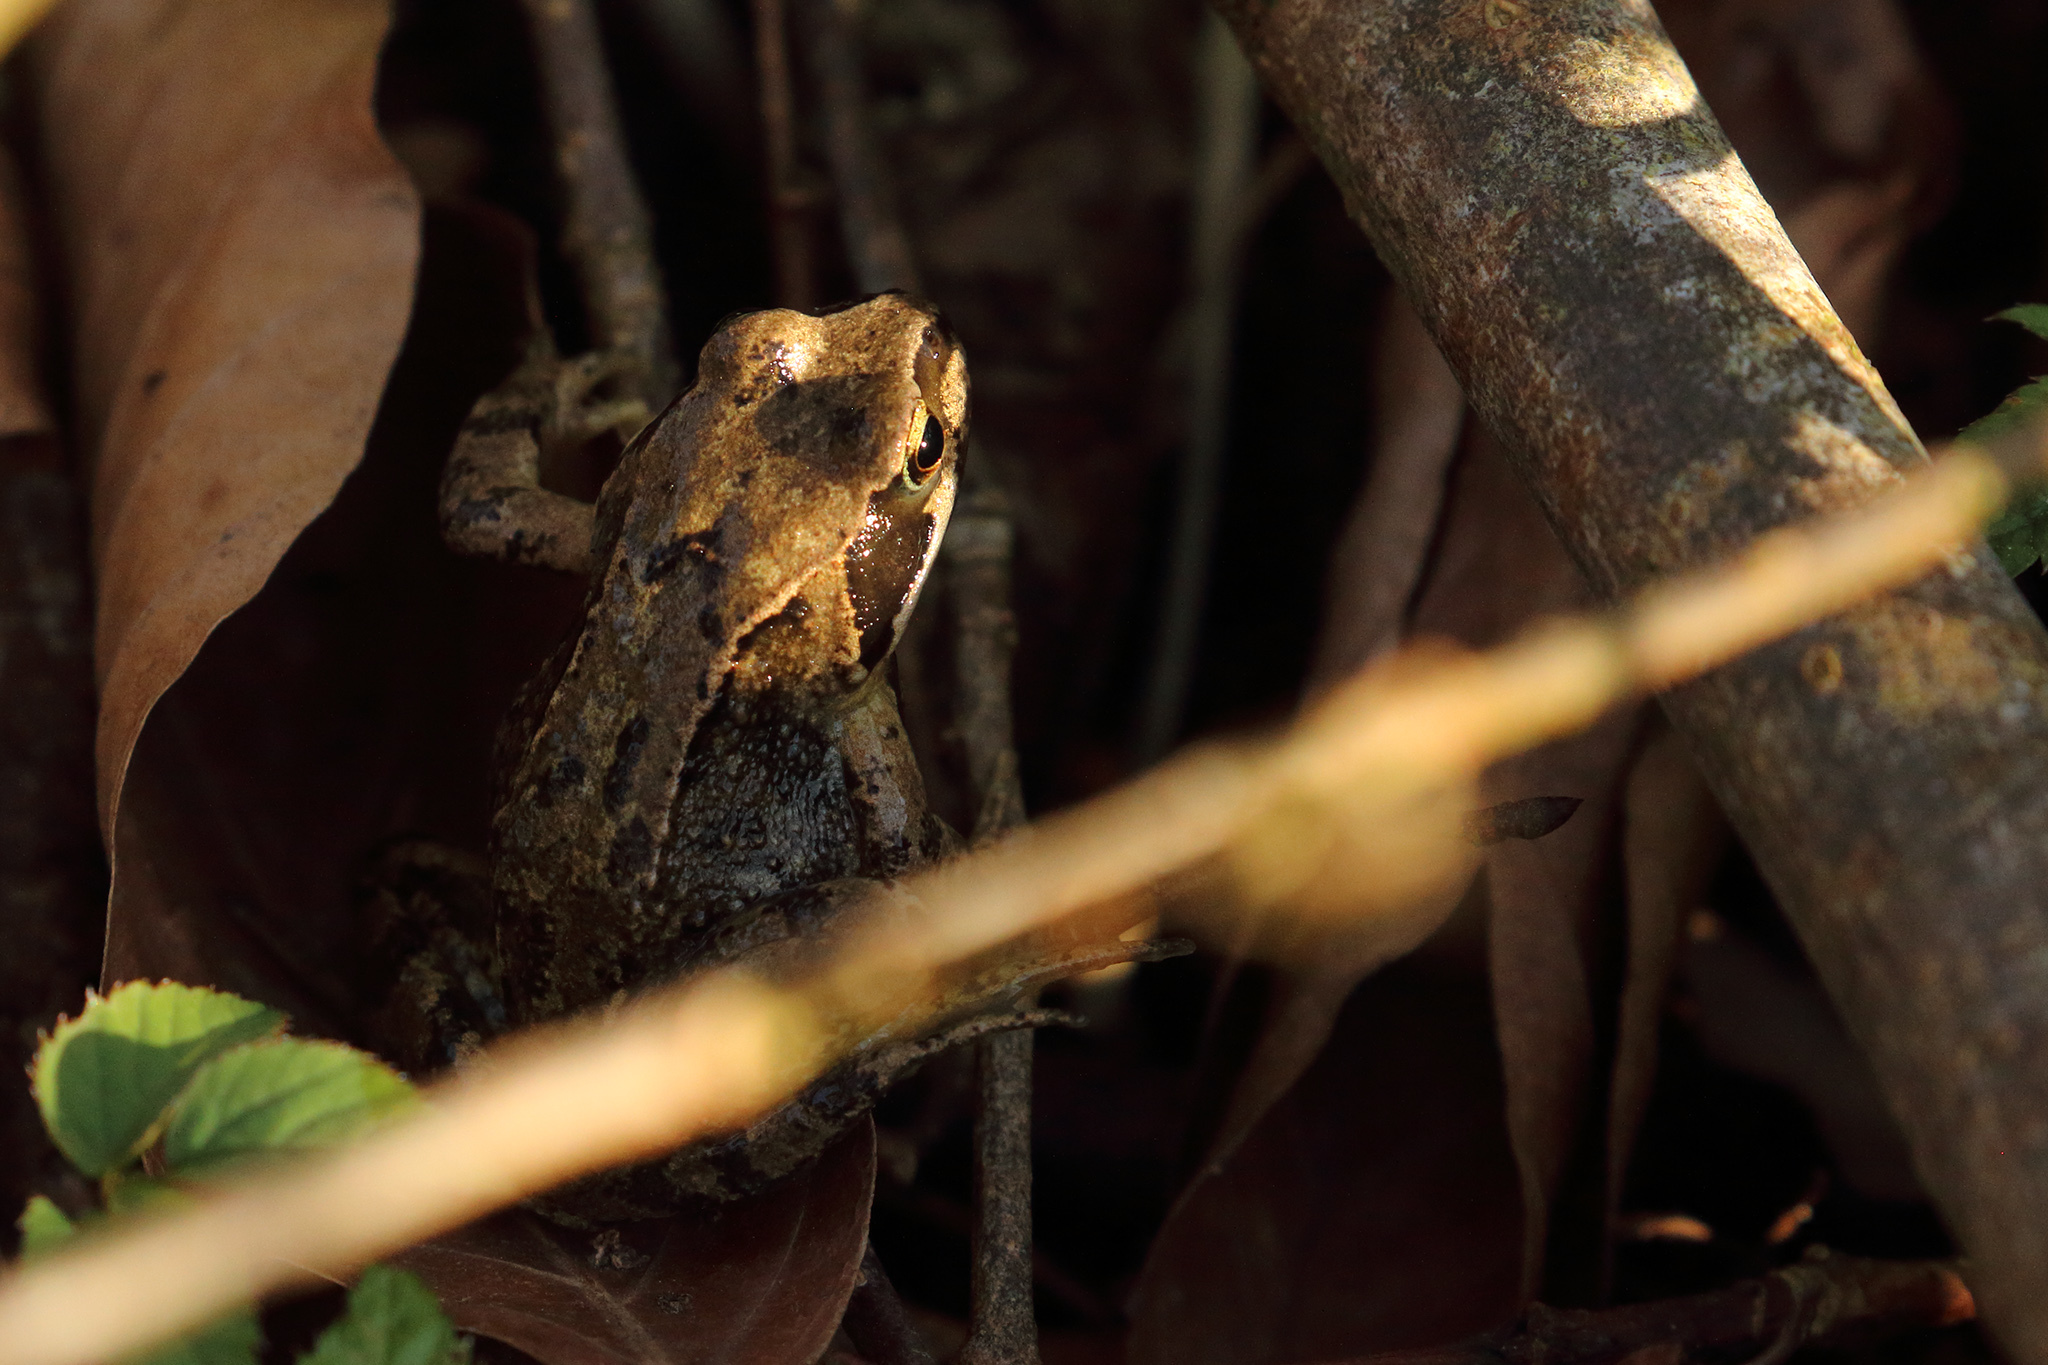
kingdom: Animalia
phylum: Chordata
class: Amphibia
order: Anura
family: Ranidae
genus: Rana
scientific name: Rana temporaria
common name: Common frog
